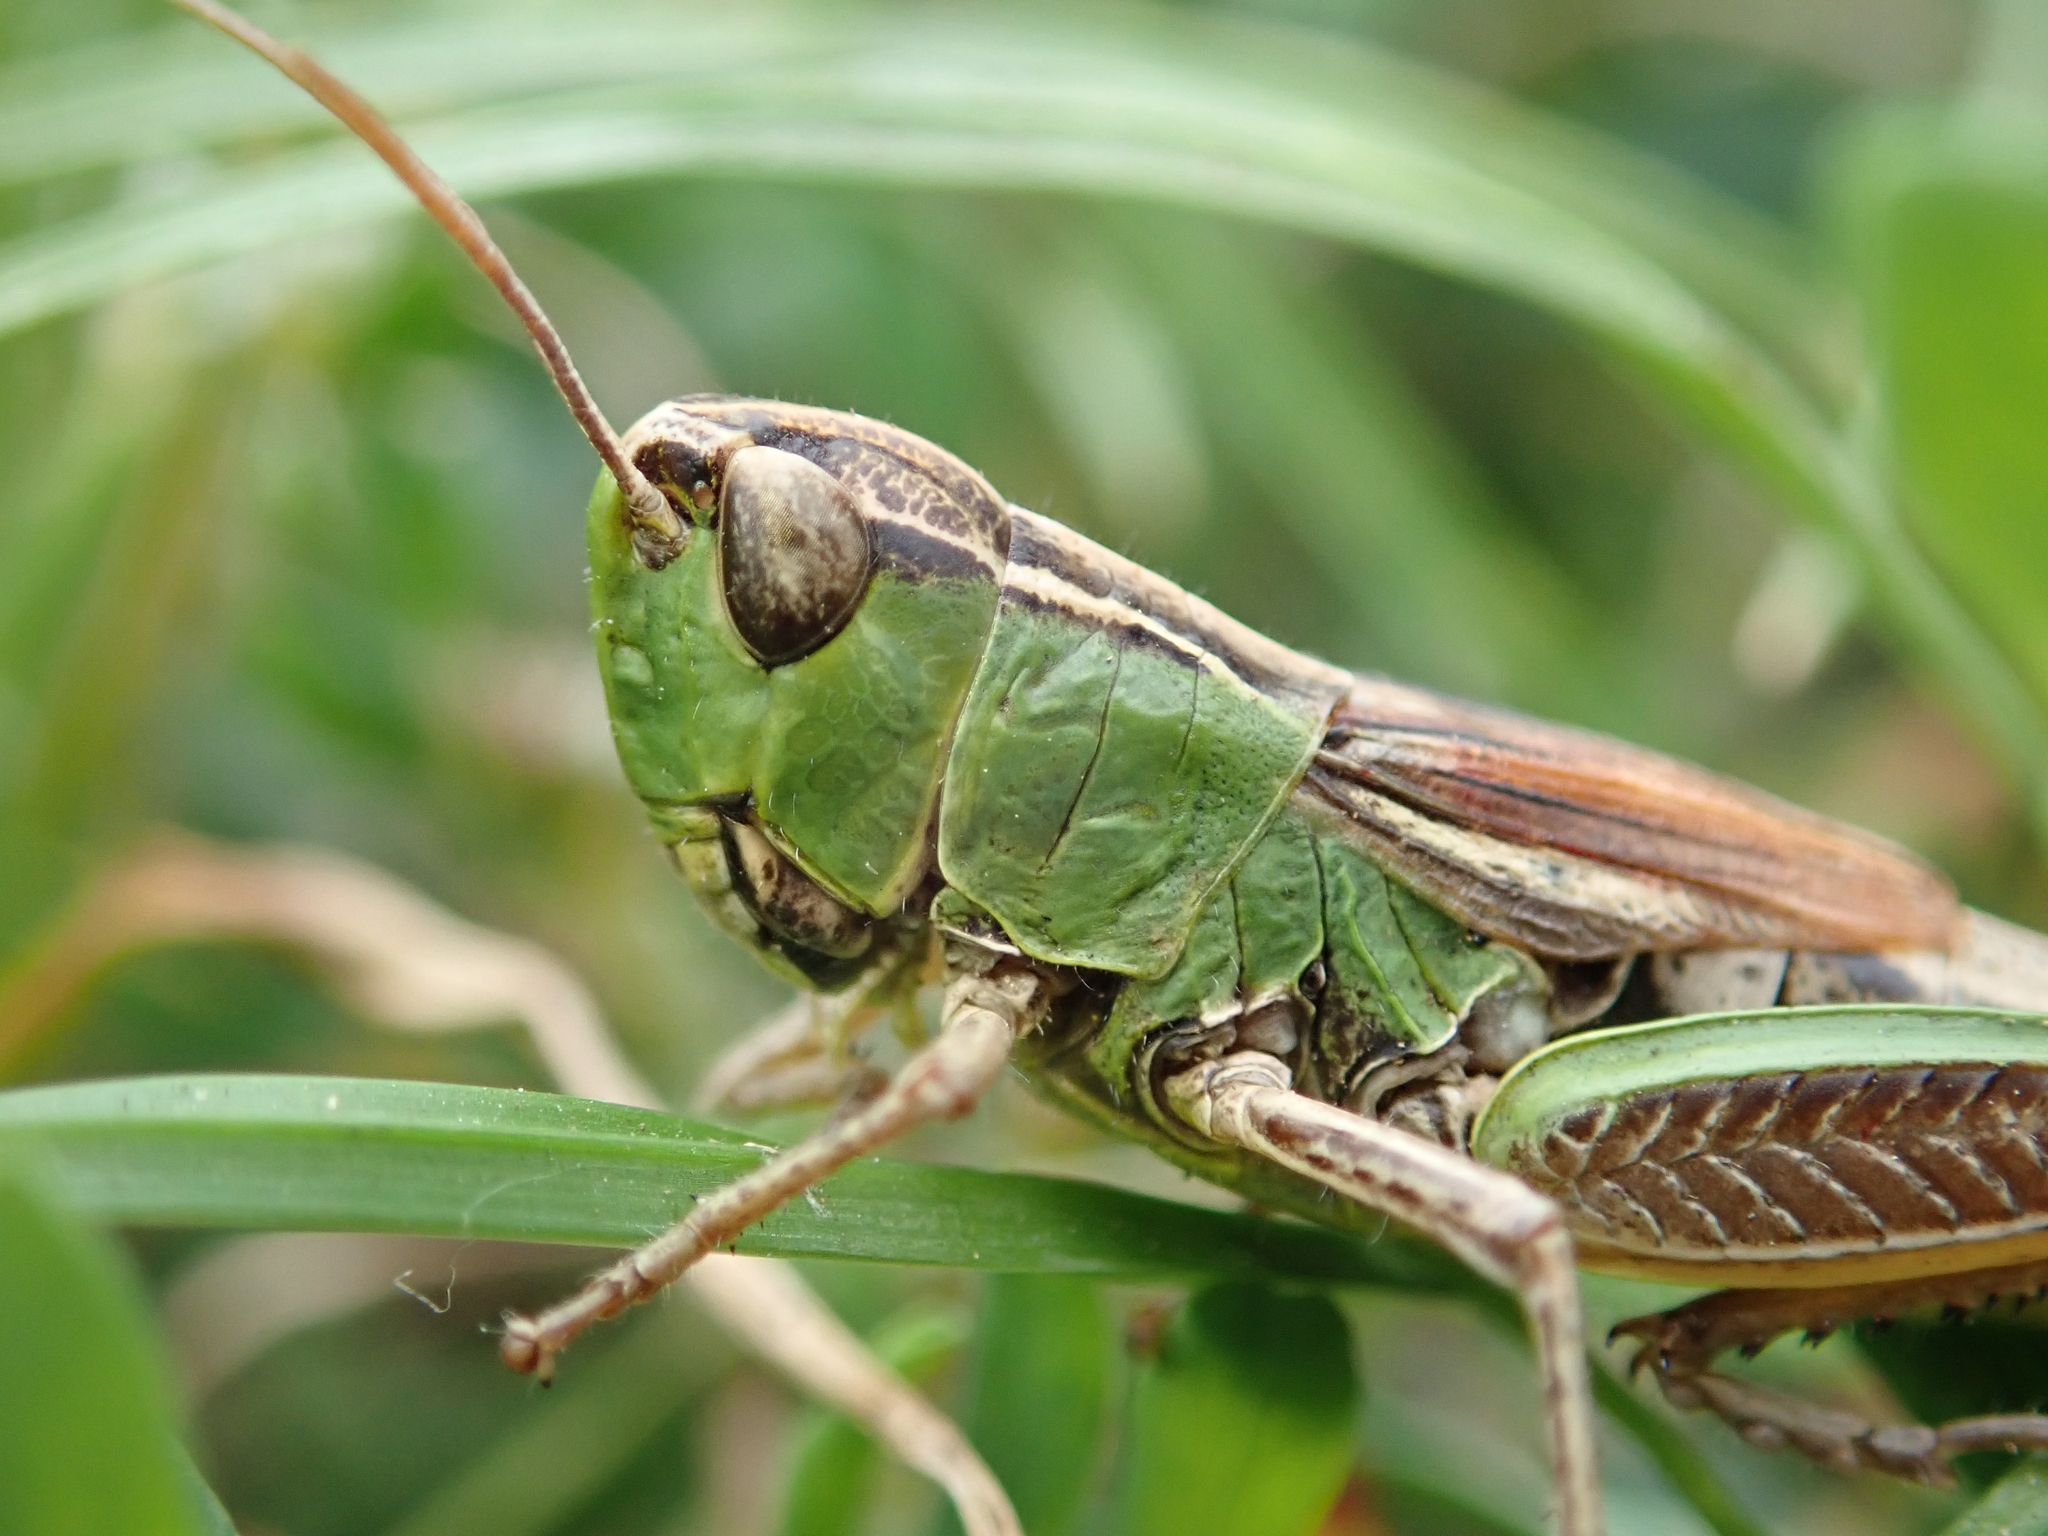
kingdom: Animalia
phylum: Arthropoda
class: Insecta
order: Orthoptera
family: Acrididae
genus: Pseudochorthippus
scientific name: Pseudochorthippus parallelus
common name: Meadow grasshopper
